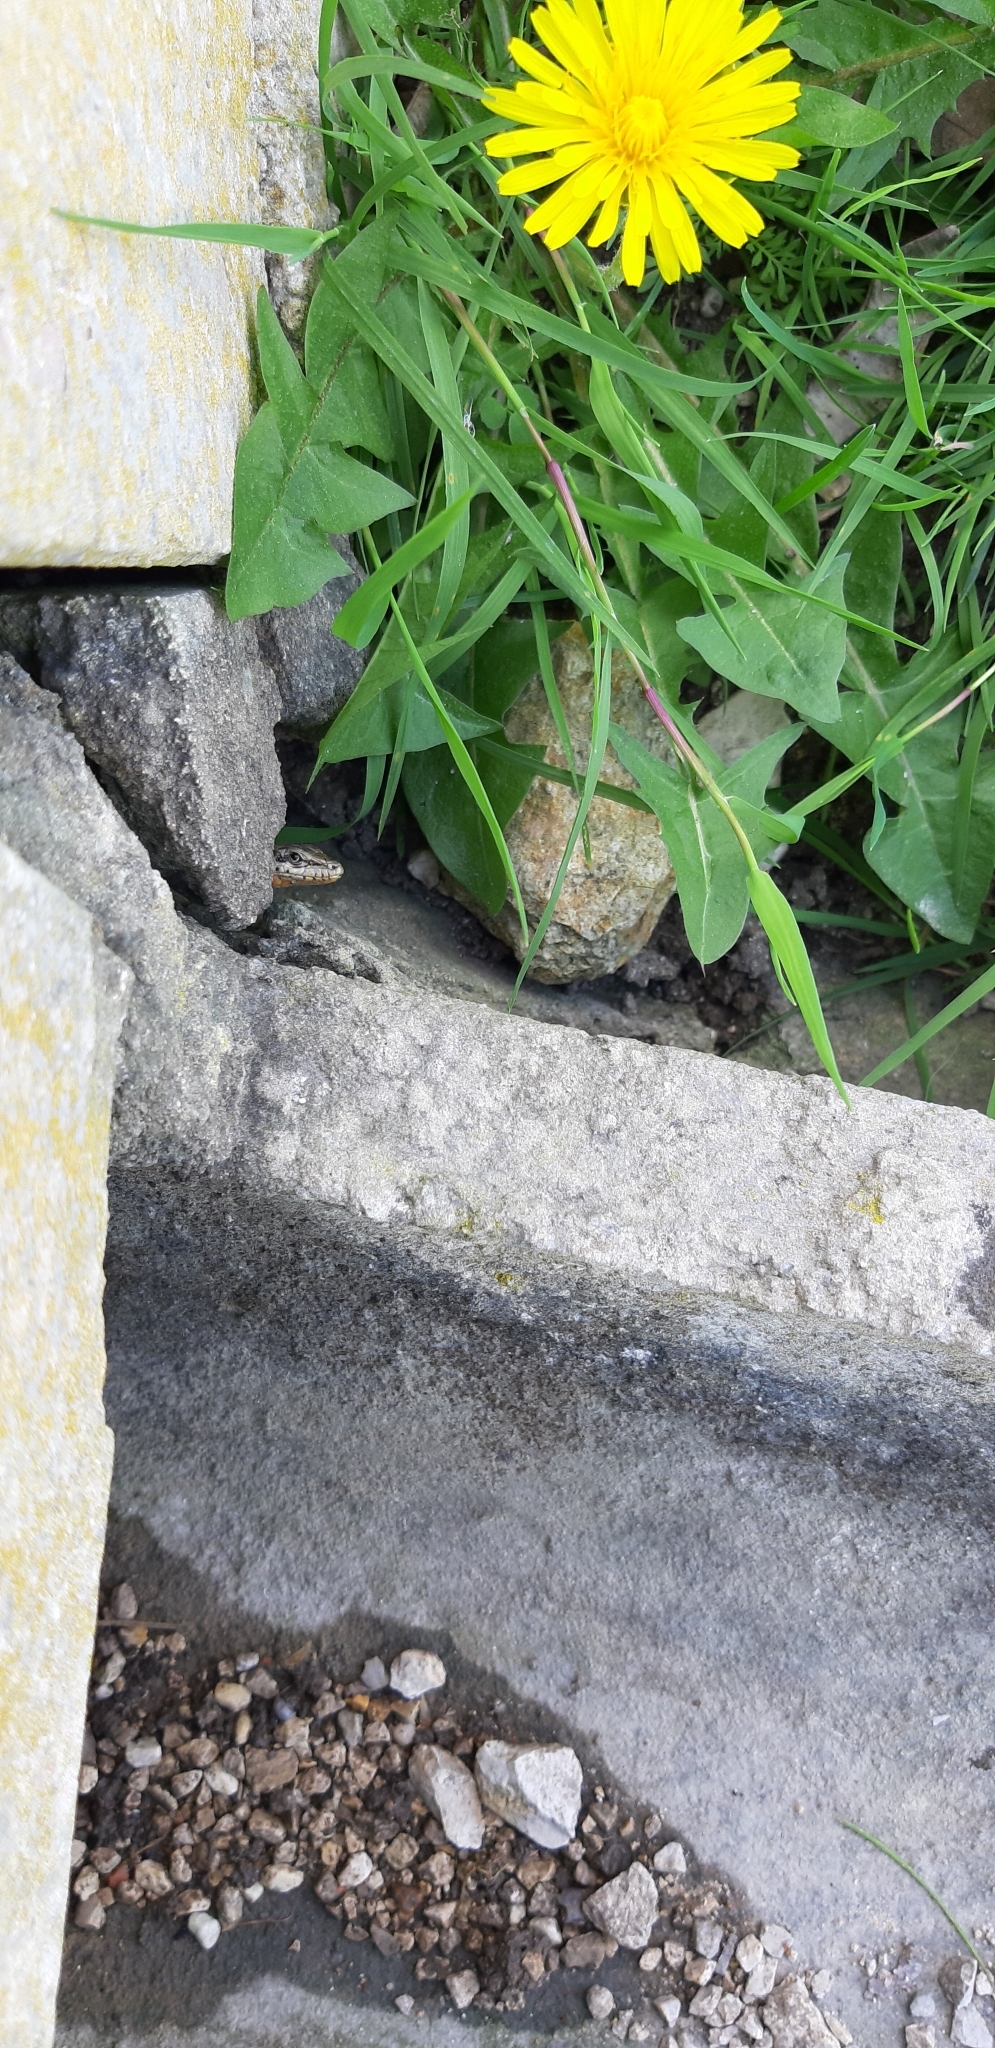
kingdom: Animalia
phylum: Chordata
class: Squamata
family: Lacertidae
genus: Podarcis
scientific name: Podarcis virescens
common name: Geniez’s wall lizard
